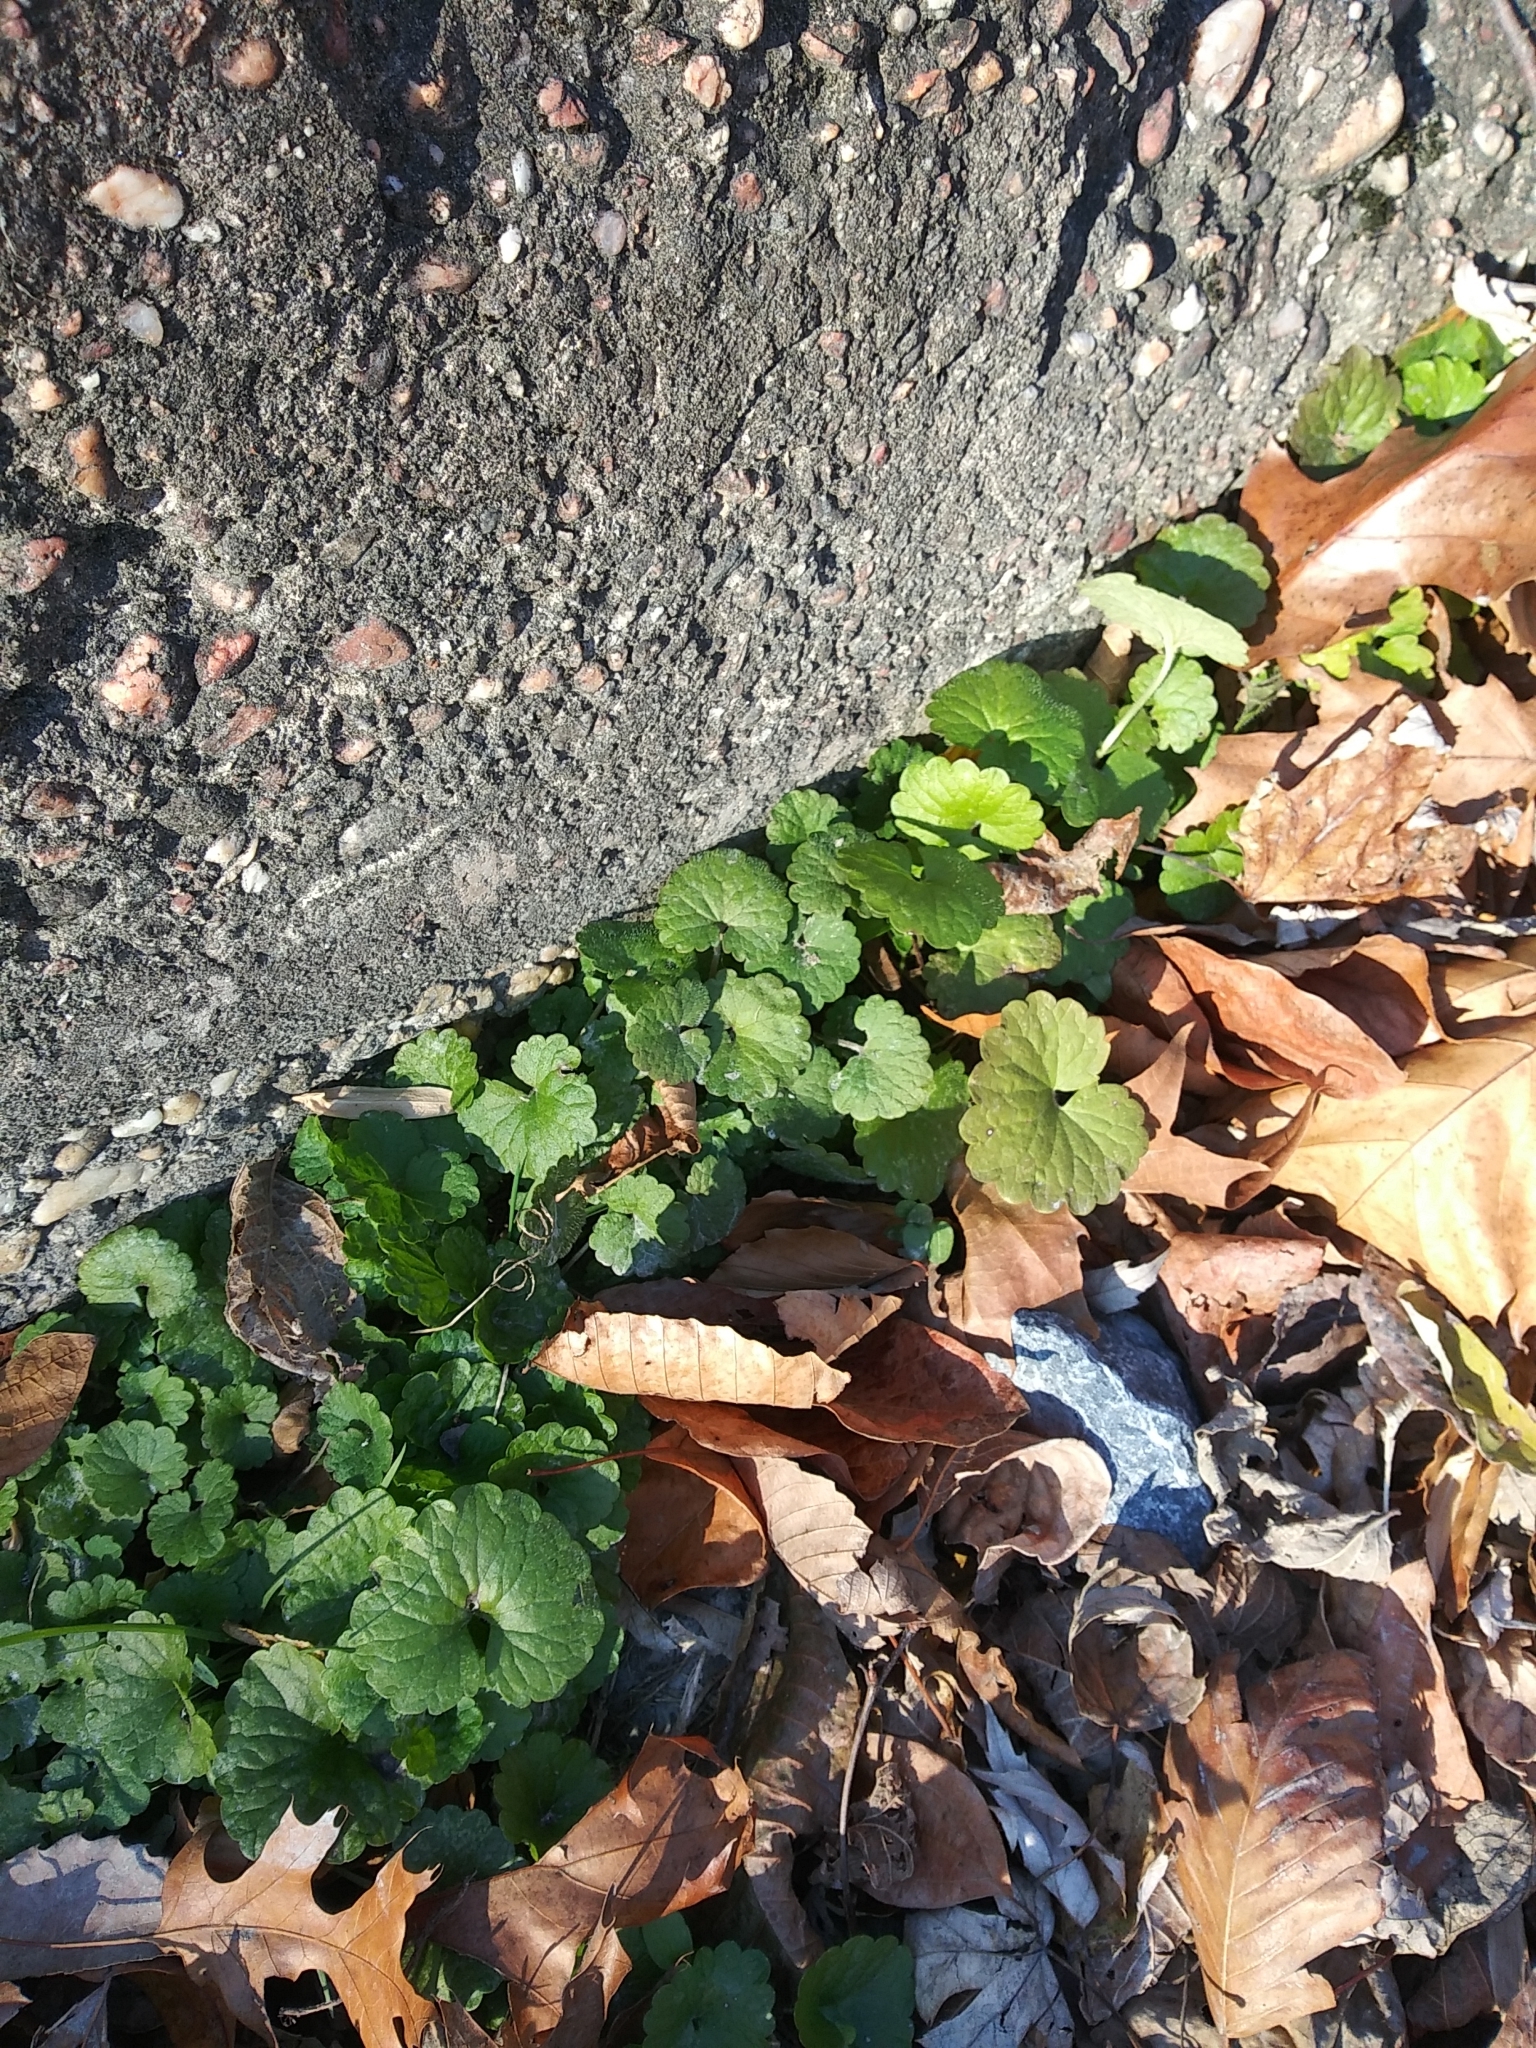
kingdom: Plantae
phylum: Tracheophyta
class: Magnoliopsida
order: Lamiales
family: Lamiaceae
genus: Glechoma
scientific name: Glechoma hederacea
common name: Ground ivy
